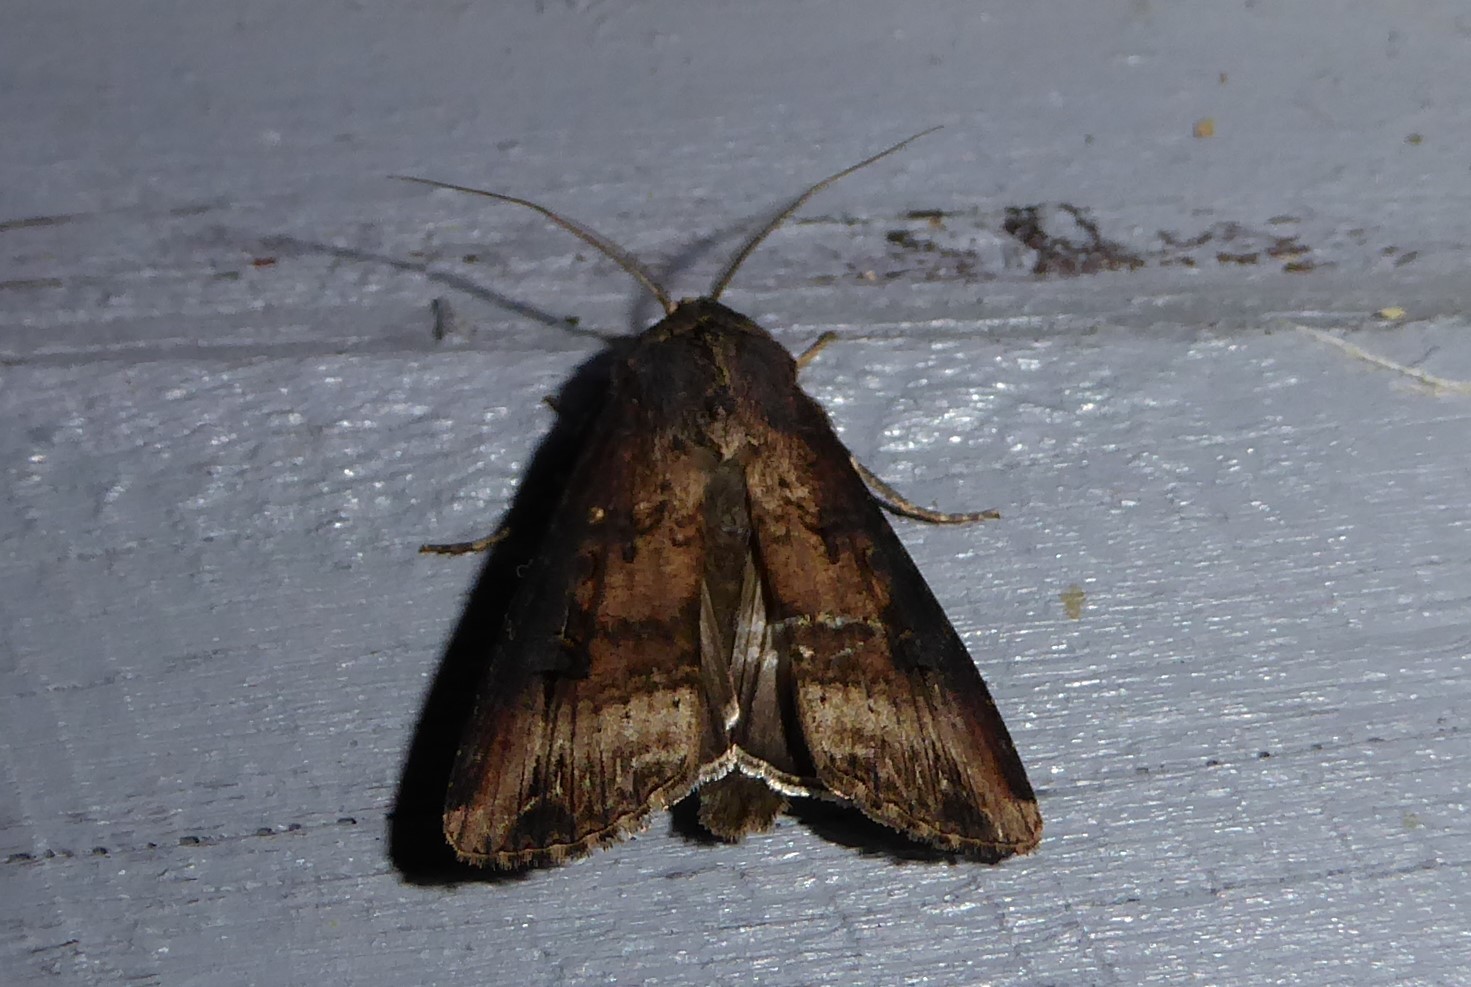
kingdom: Animalia
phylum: Arthropoda
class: Insecta
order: Lepidoptera
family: Noctuidae
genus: Agrotis
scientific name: Agrotis ipsilon
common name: Dark sword-grass
